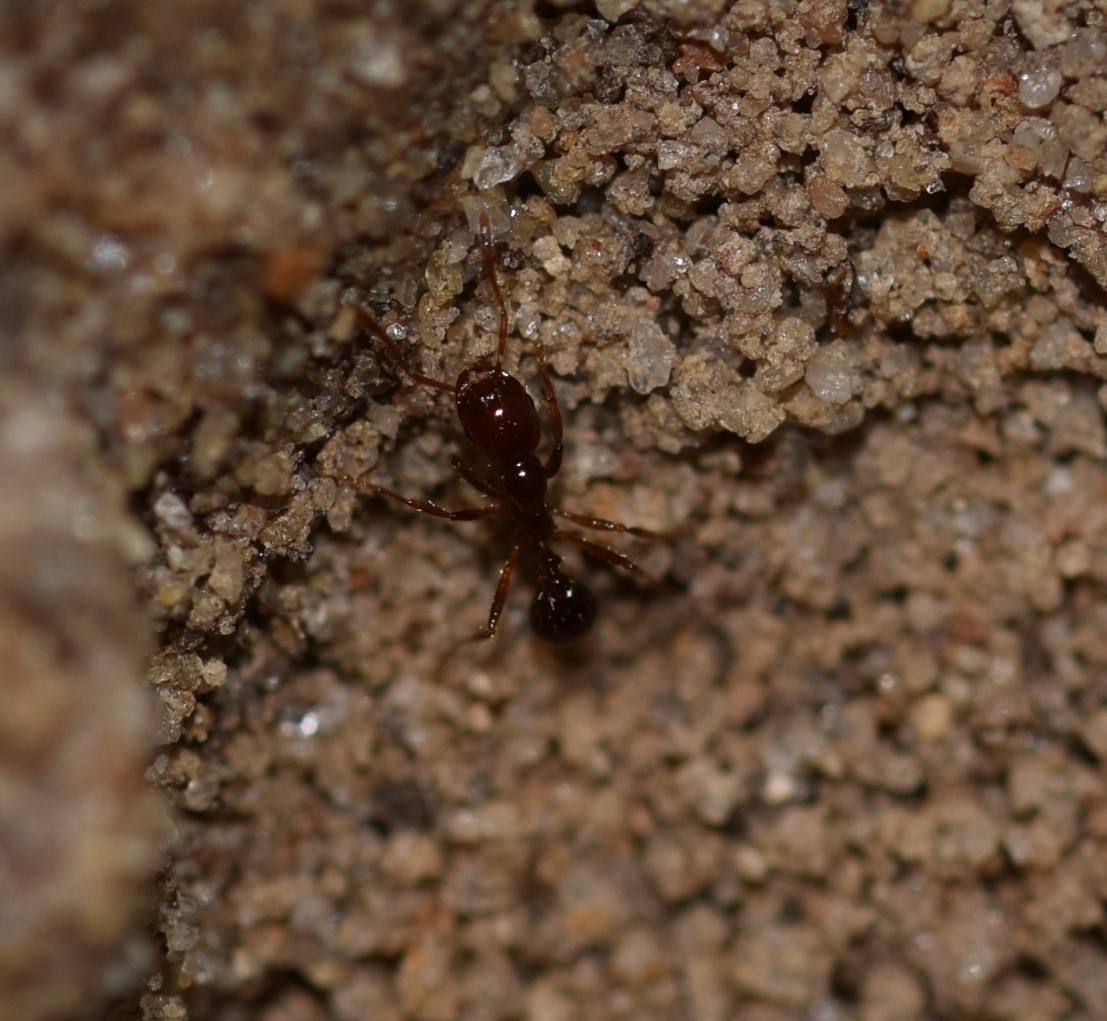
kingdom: Animalia
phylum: Arthropoda
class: Insecta
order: Hymenoptera
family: Formicidae
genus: Solenopsis
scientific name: Solenopsis invicta
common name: Red imported fire ant
